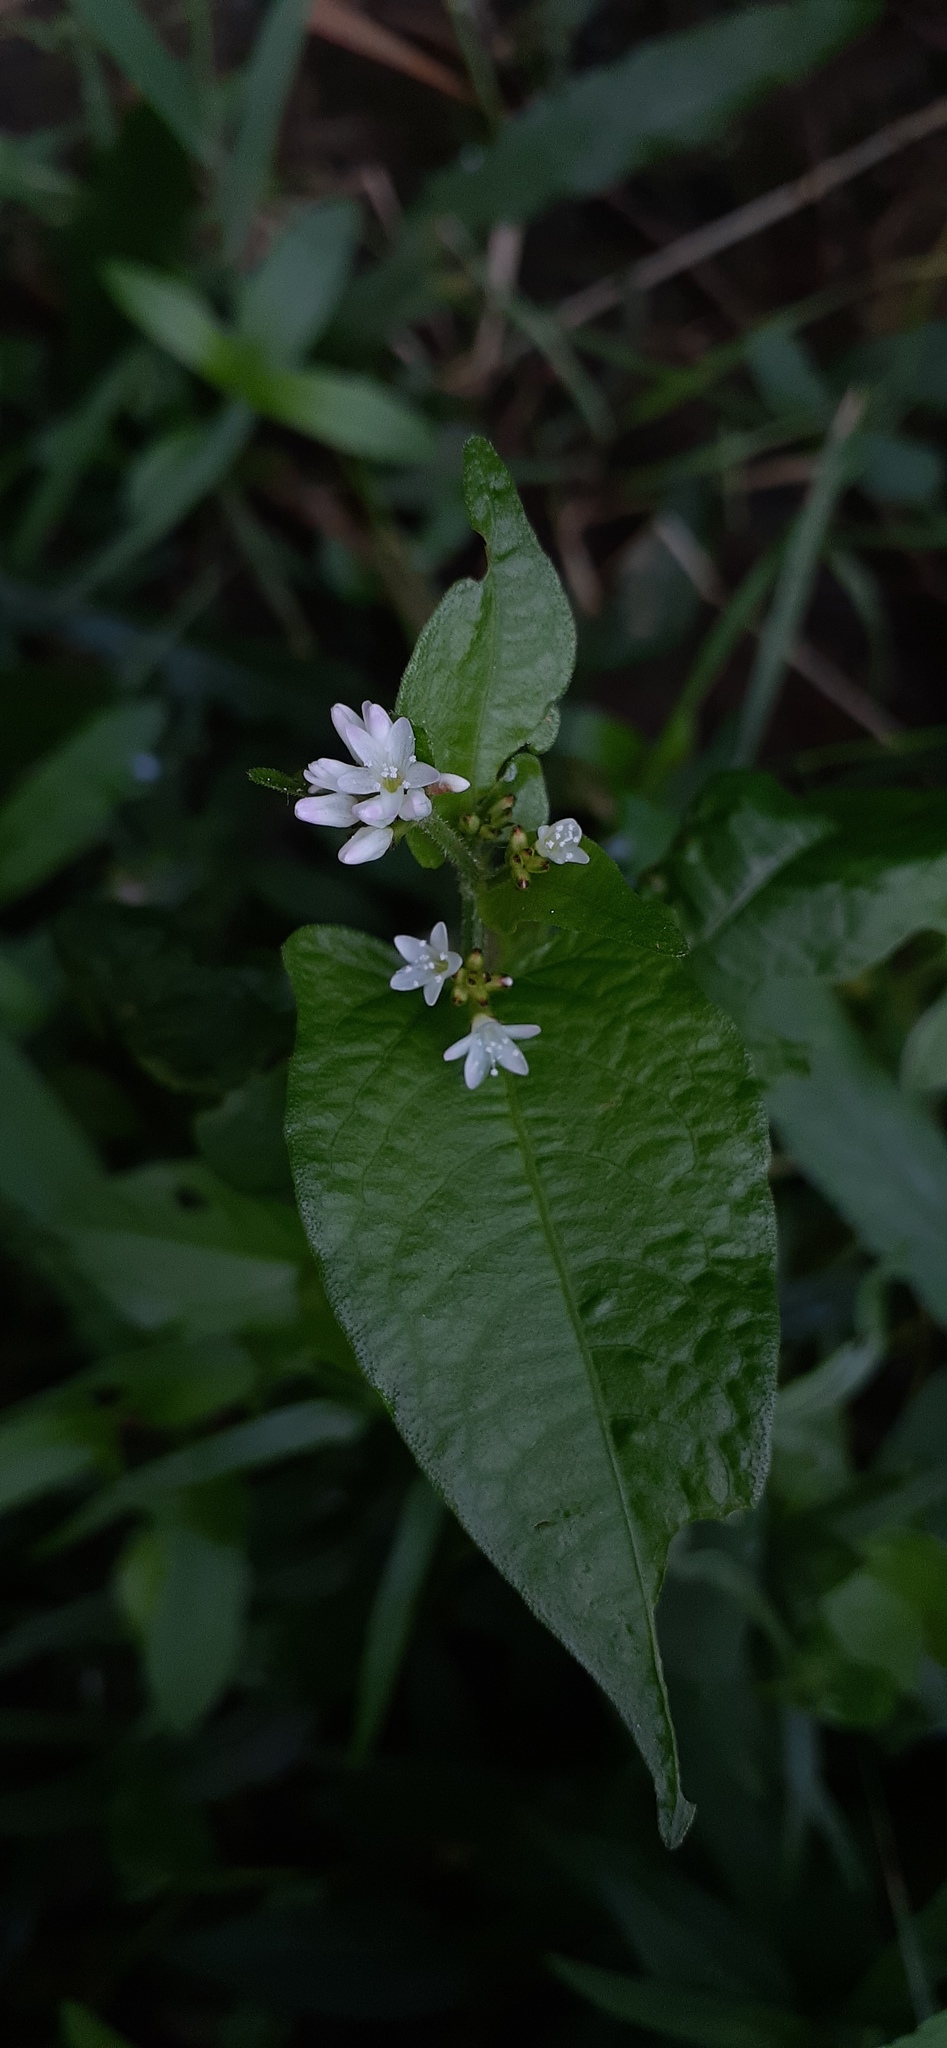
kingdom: Plantae
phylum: Tracheophyta
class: Magnoliopsida
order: Caryophyllales
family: Polygonaceae
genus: Persicaria
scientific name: Persicaria thunbergii
